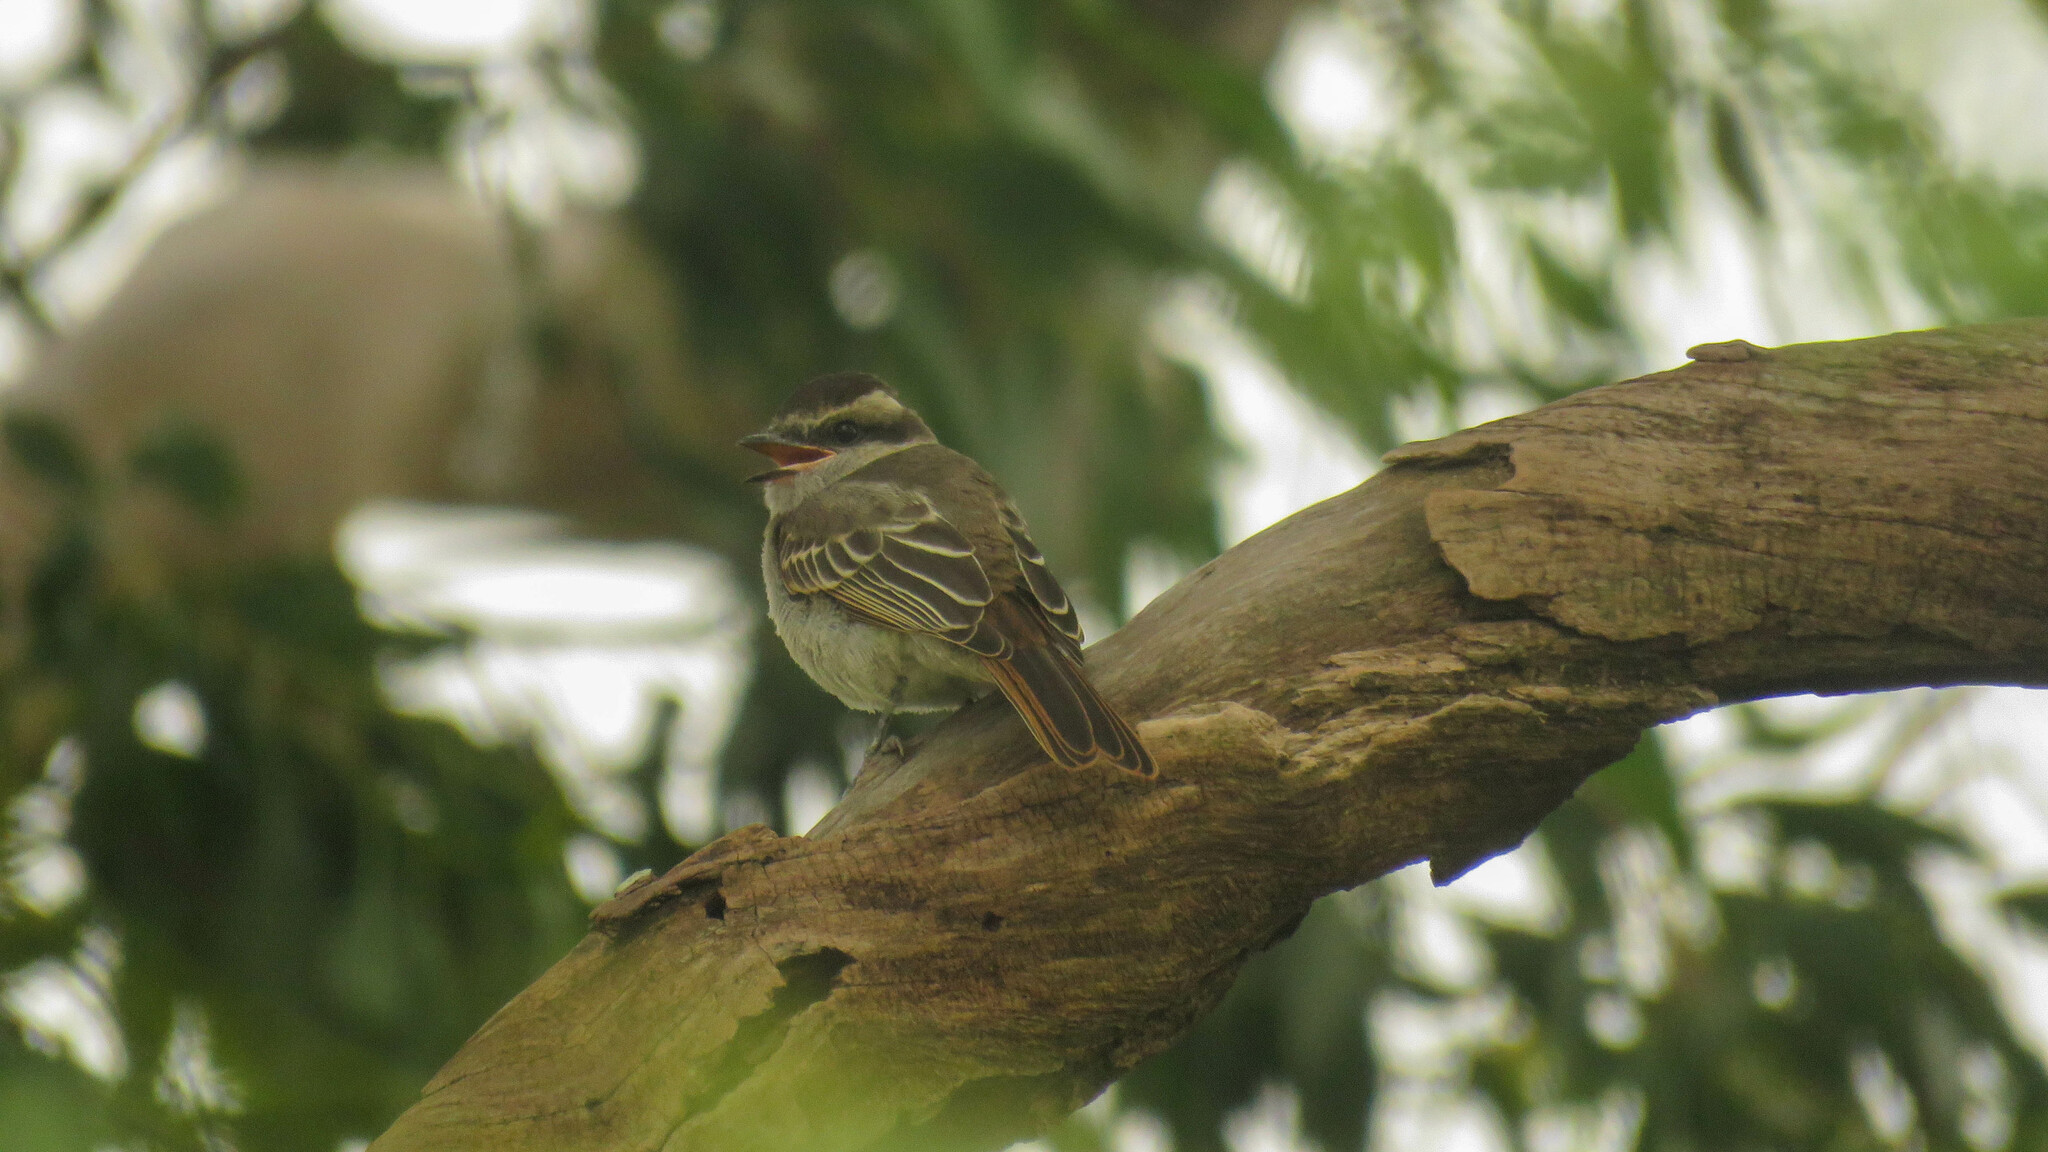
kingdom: Animalia
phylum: Chordata
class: Aves
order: Passeriformes
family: Tyrannidae
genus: Empidonomus
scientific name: Empidonomus aurantioatrocristatus
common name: Crowned slaty flycatcher
